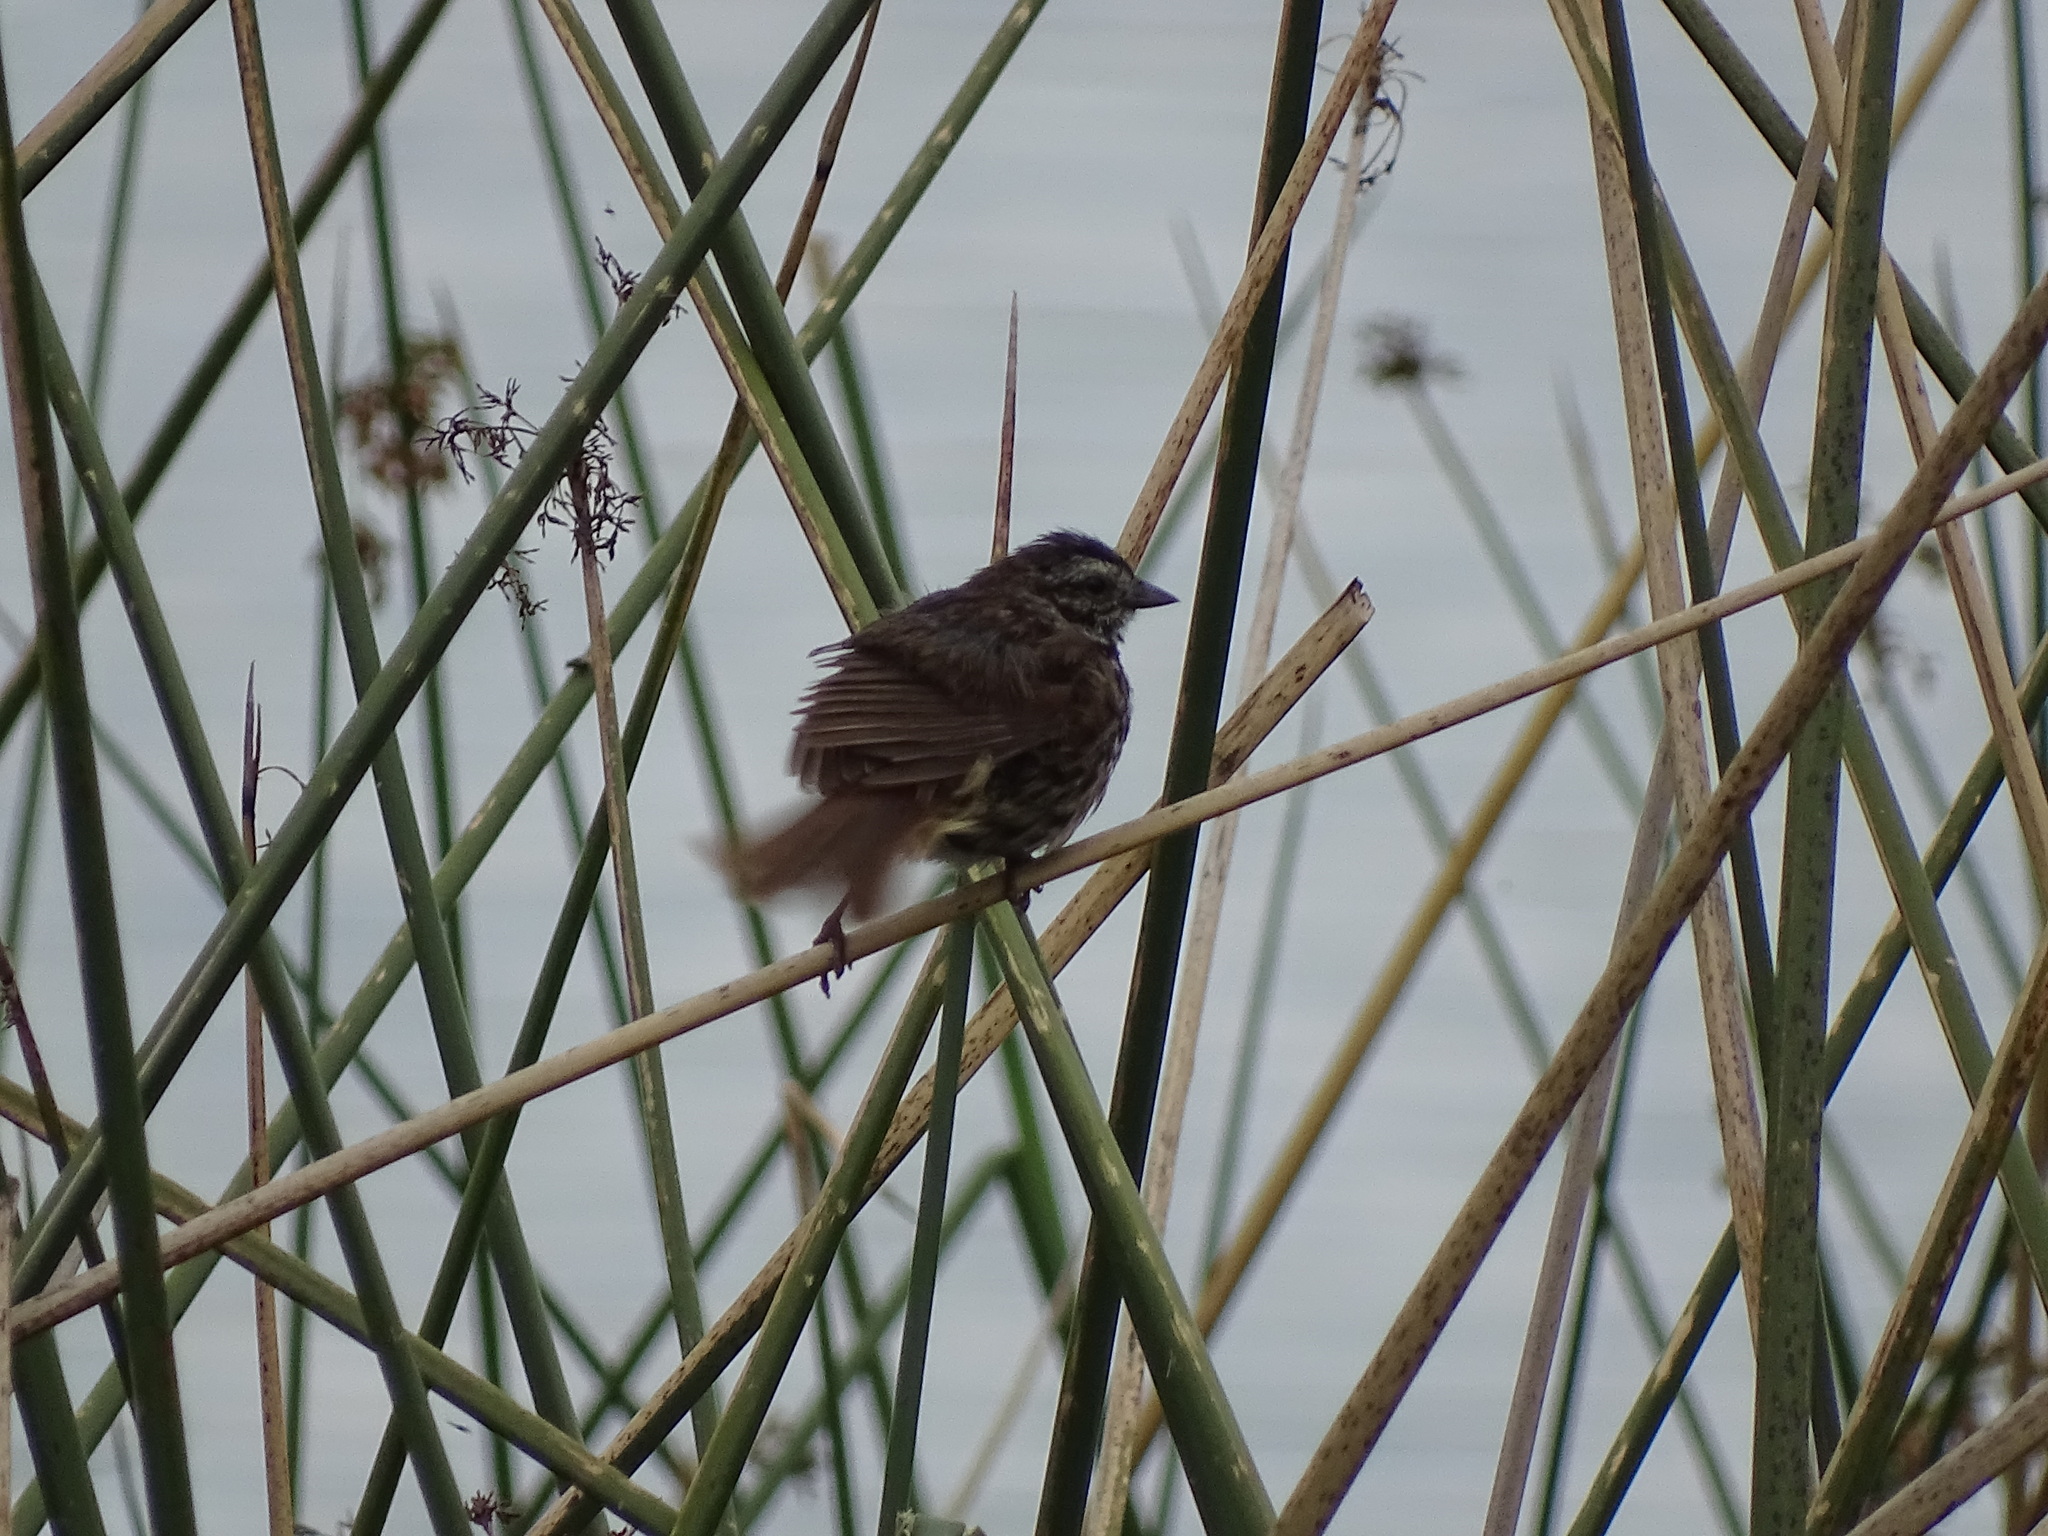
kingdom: Animalia
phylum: Chordata
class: Aves
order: Passeriformes
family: Passerellidae
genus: Melospiza
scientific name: Melospiza melodia
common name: Song sparrow
